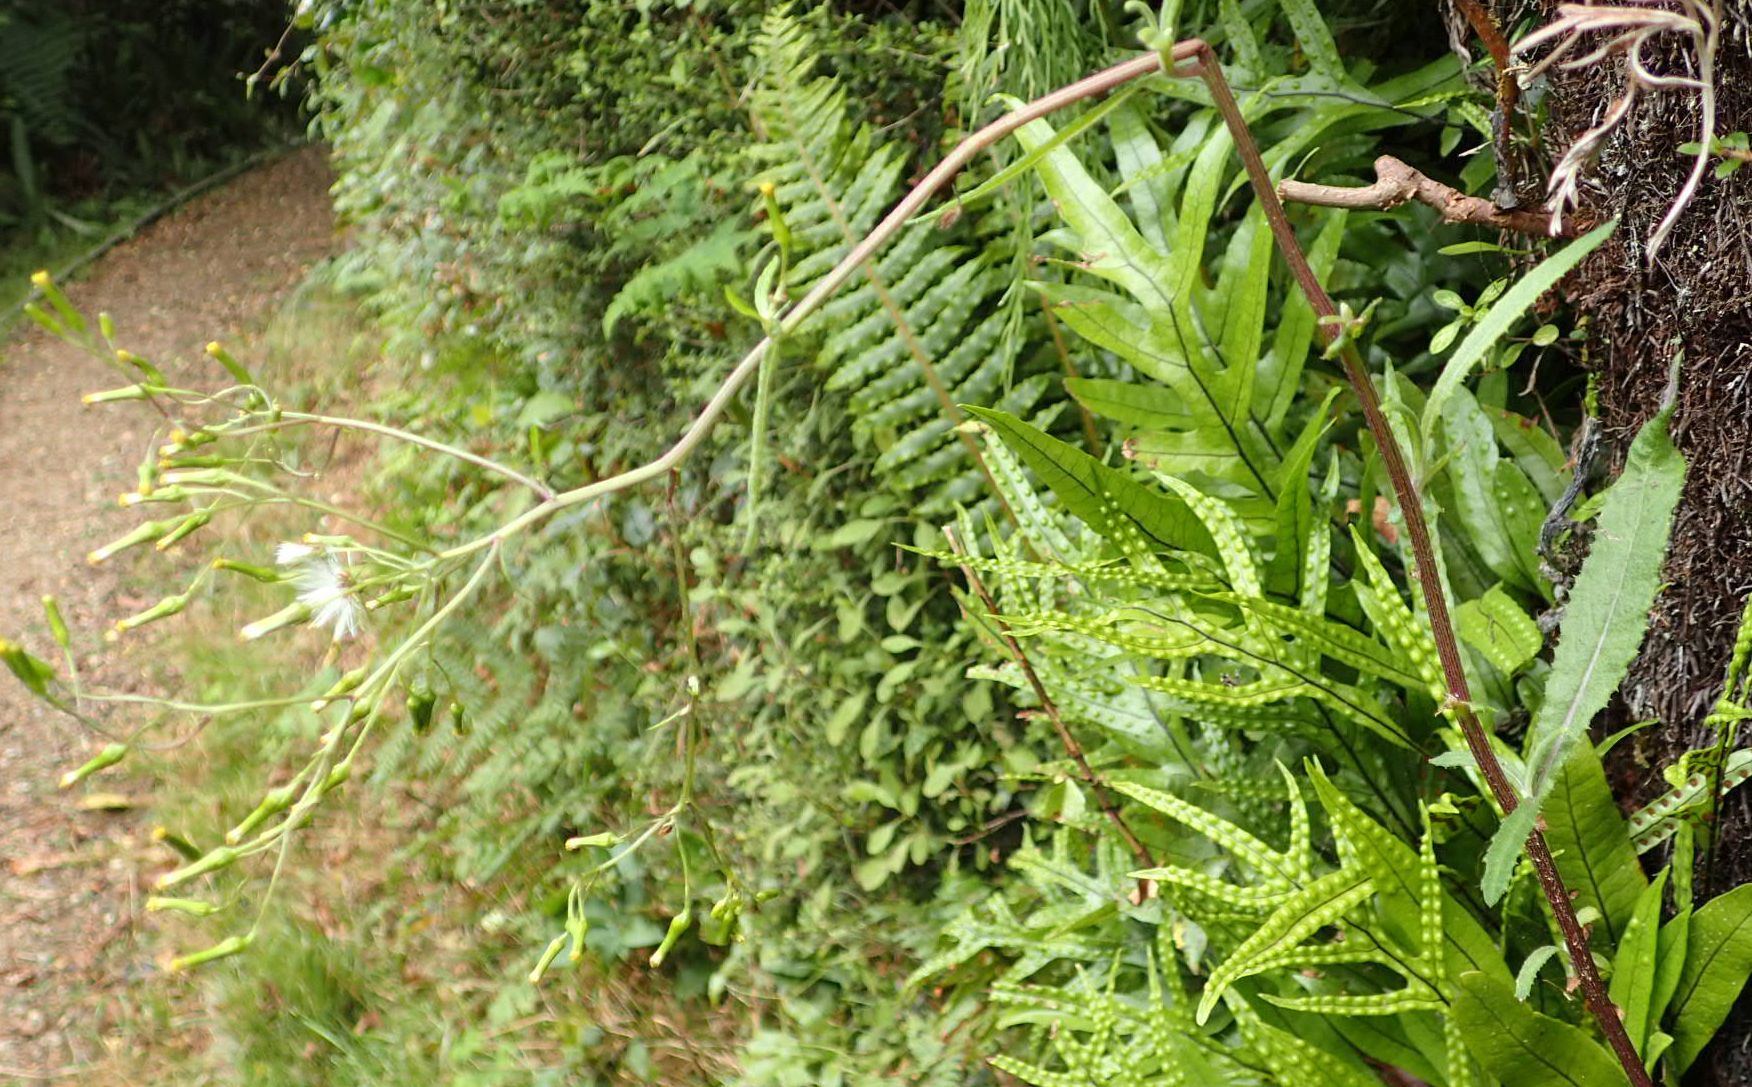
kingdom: Plantae
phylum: Tracheophyta
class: Magnoliopsida
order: Asterales
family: Asteraceae
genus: Senecio
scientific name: Senecio minimus
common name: Toothed fireweed
